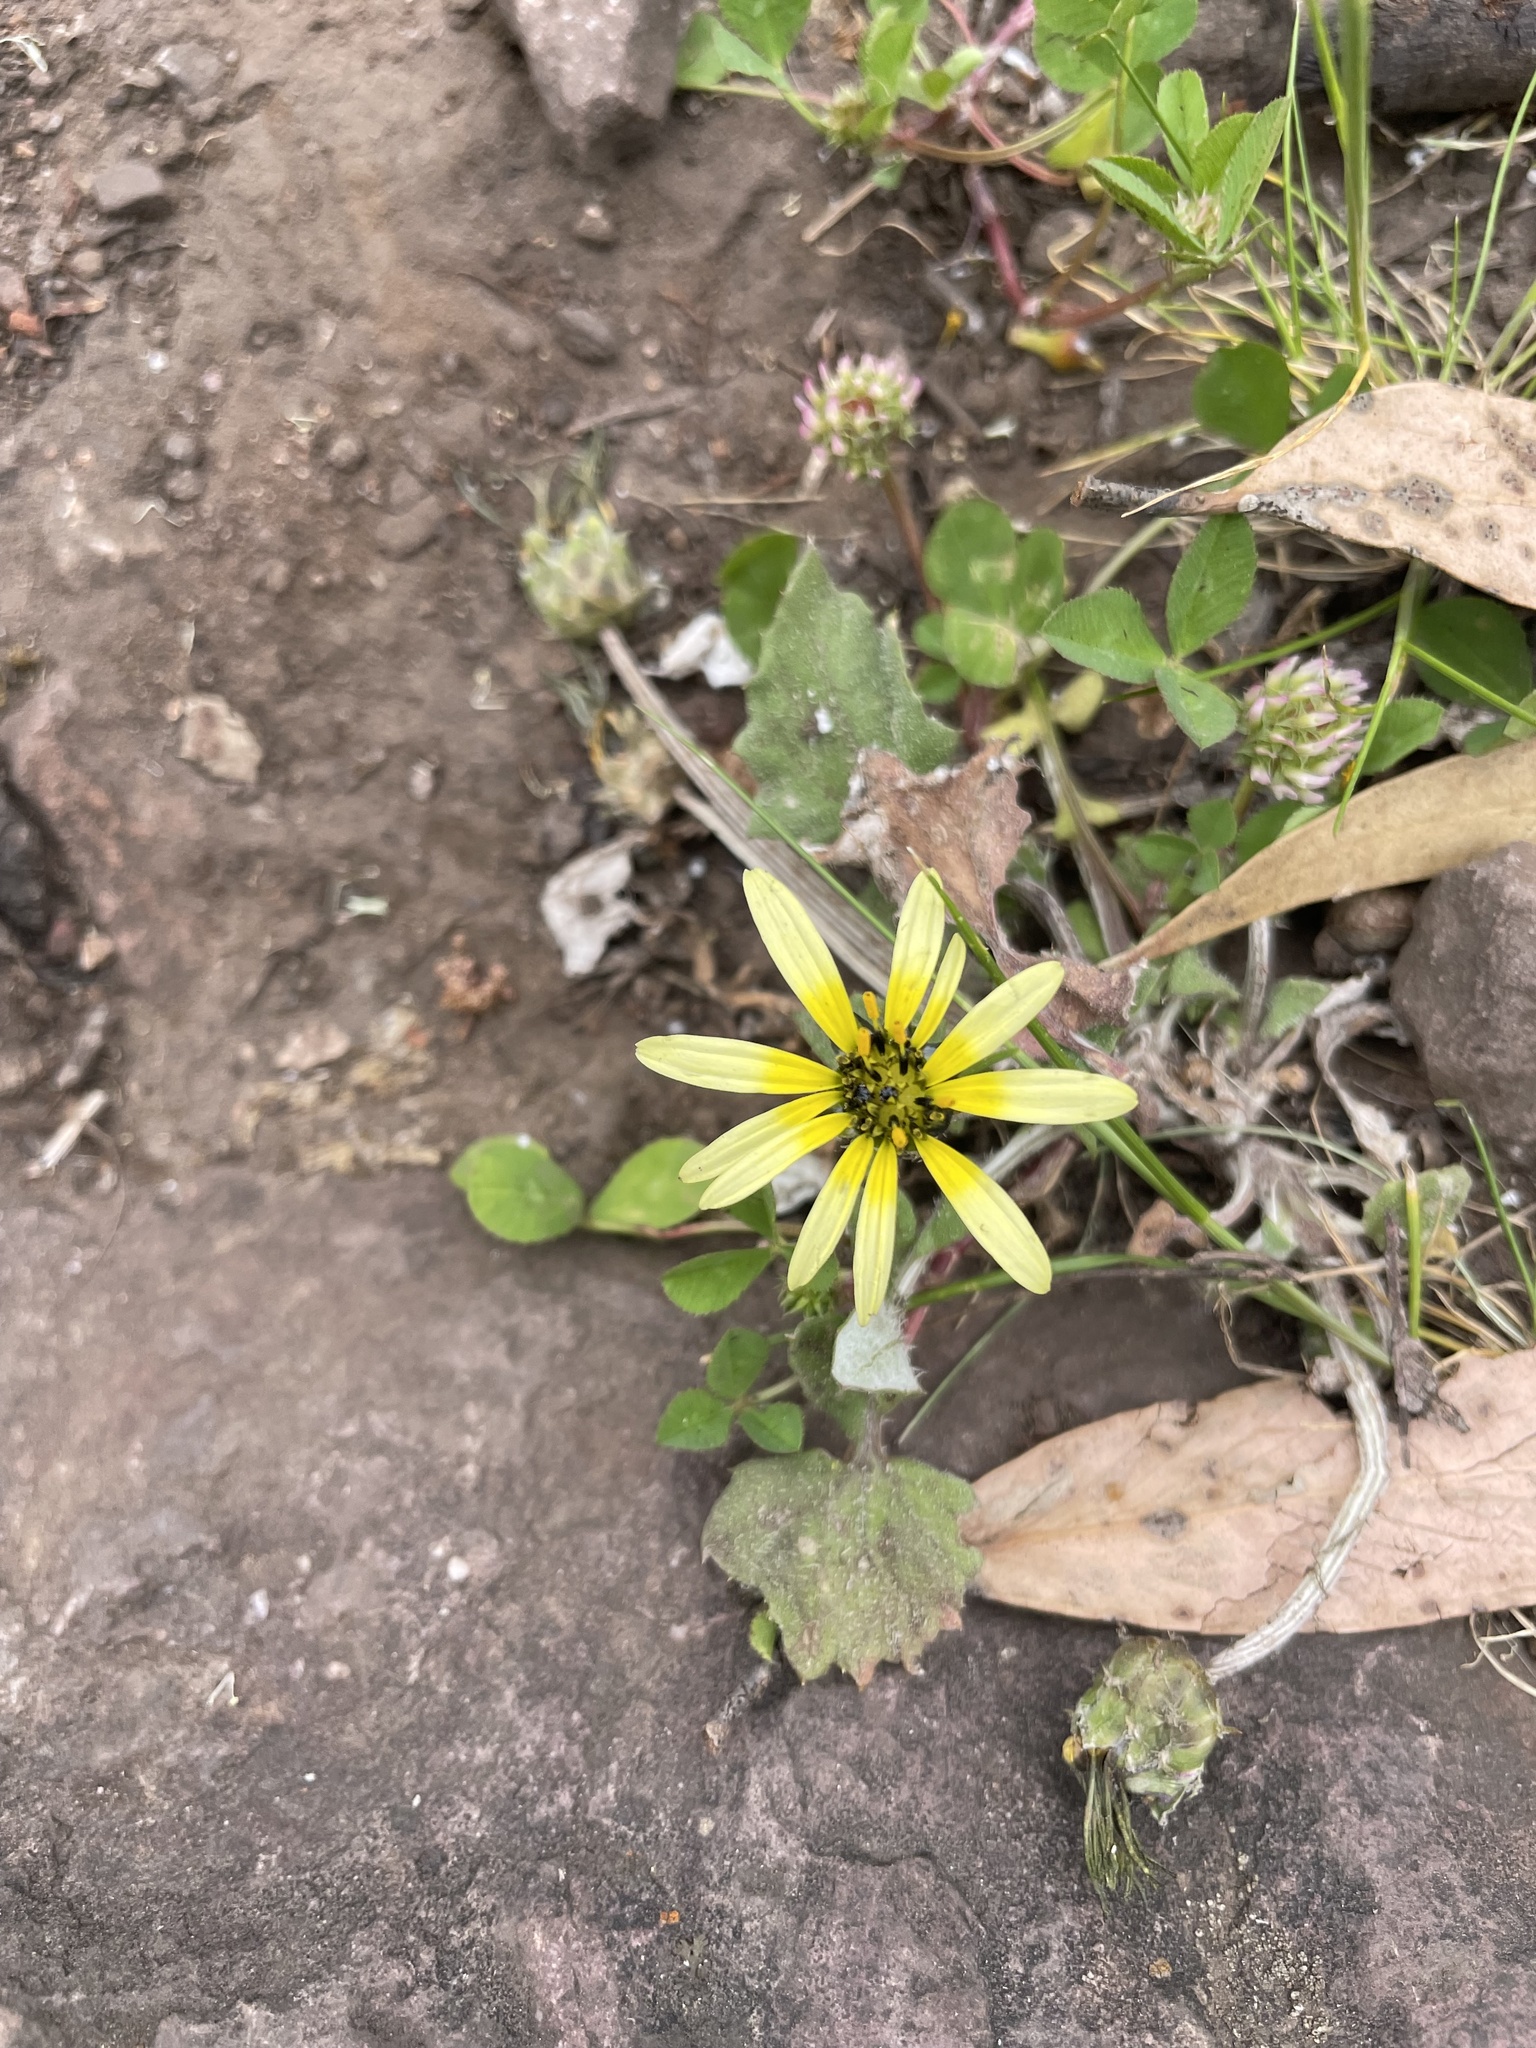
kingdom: Plantae
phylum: Tracheophyta
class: Magnoliopsida
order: Asterales
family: Asteraceae
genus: Arctotheca
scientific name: Arctotheca calendula
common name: Capeweed
